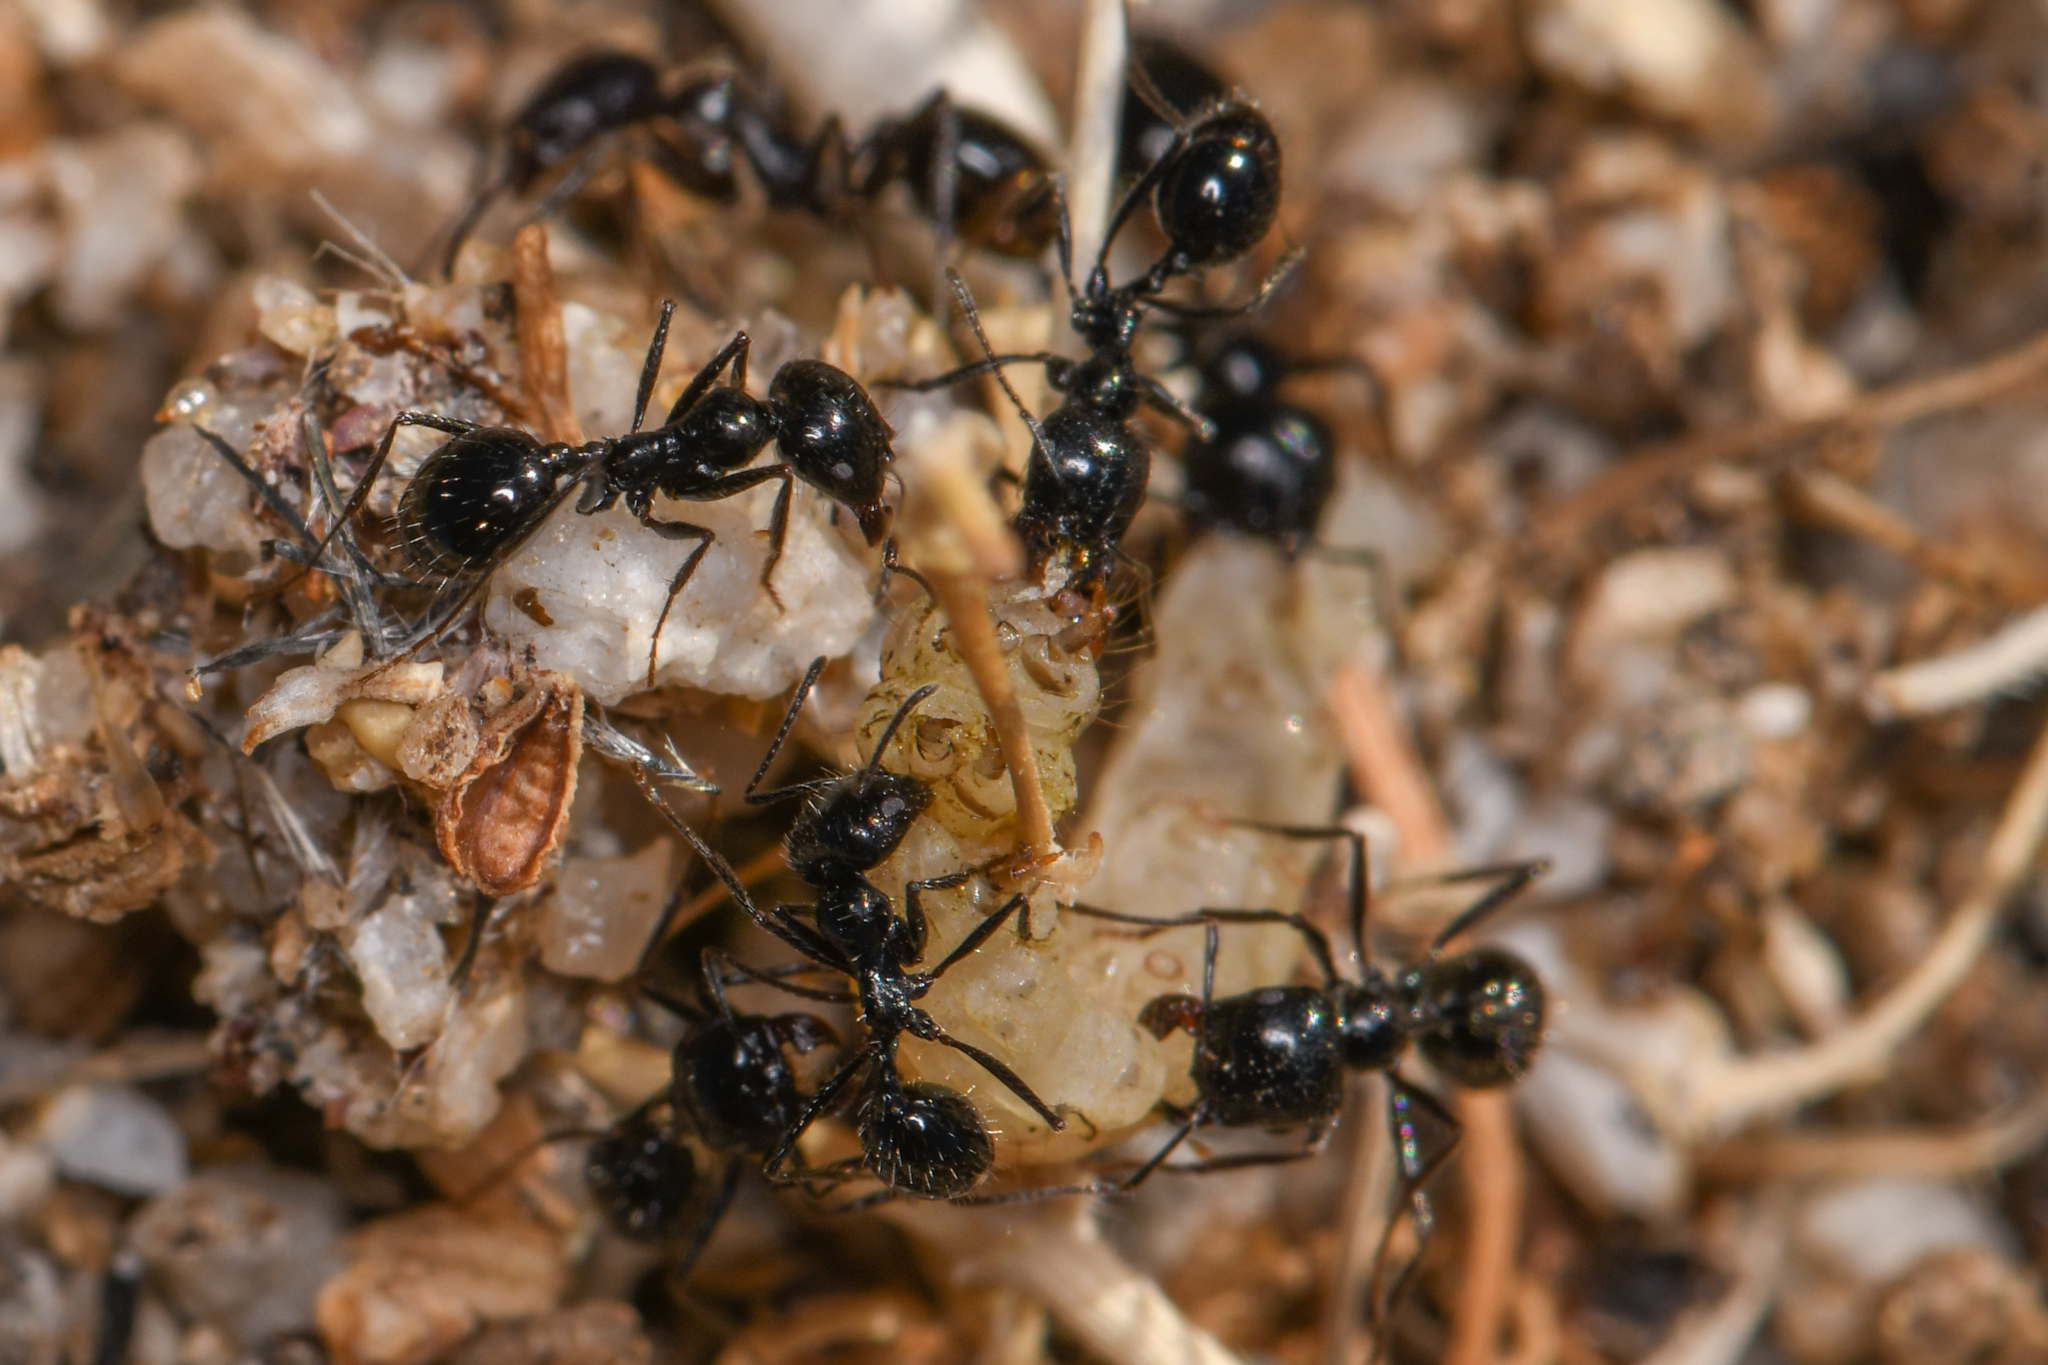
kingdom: Animalia
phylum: Arthropoda
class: Insecta
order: Hymenoptera
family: Formicidae
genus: Messor
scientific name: Messor pergandei
